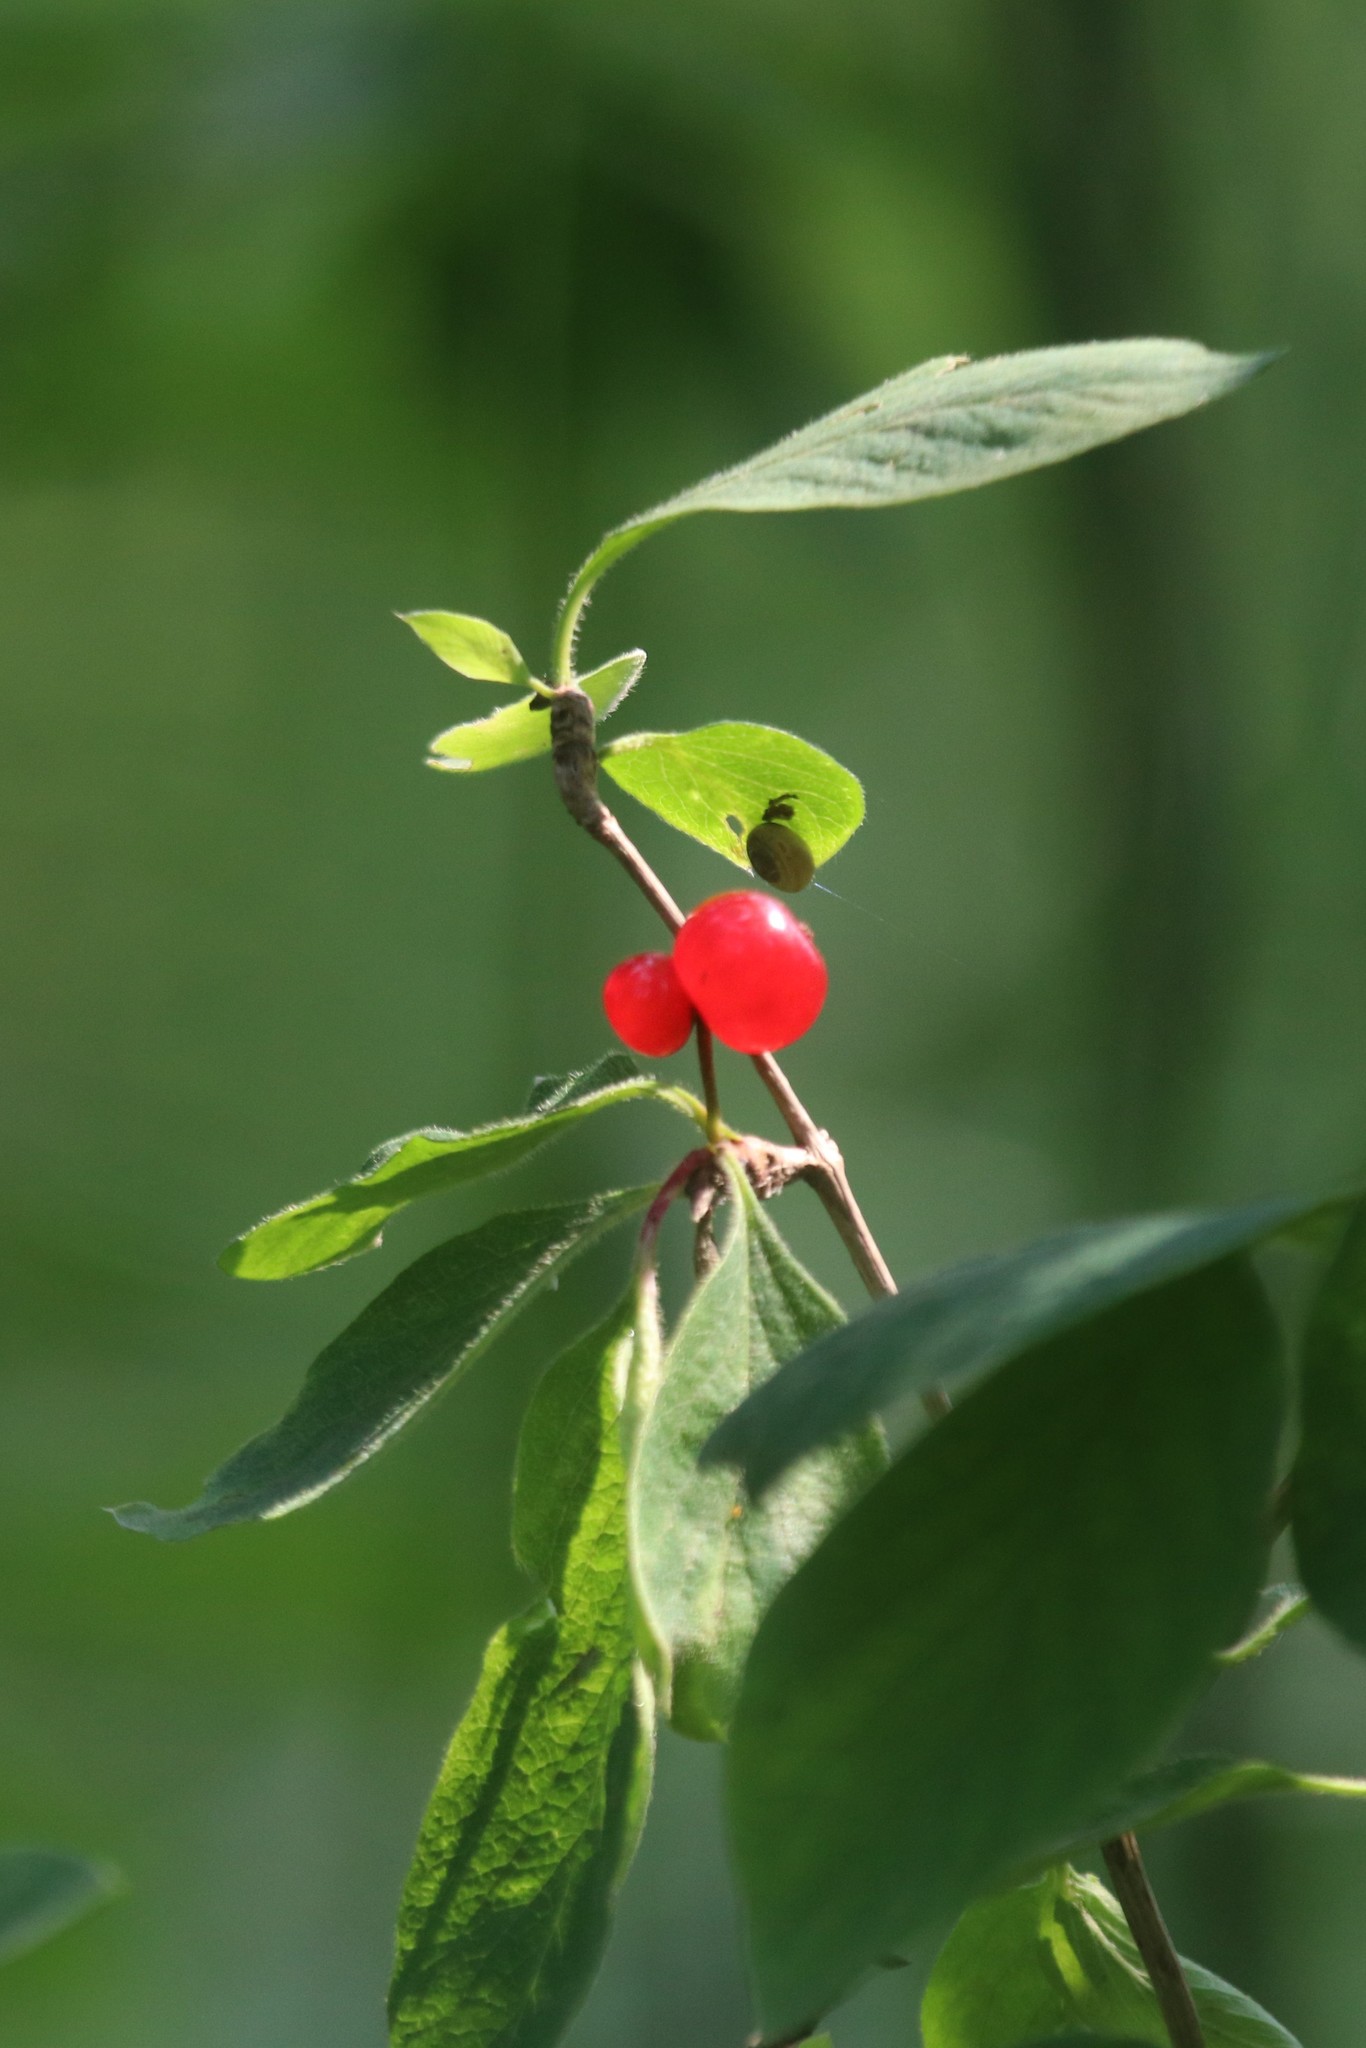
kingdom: Plantae
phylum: Tracheophyta
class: Magnoliopsida
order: Dipsacales
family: Caprifoliaceae
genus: Lonicera
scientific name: Lonicera xylosteum
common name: Fly honeysuckle
